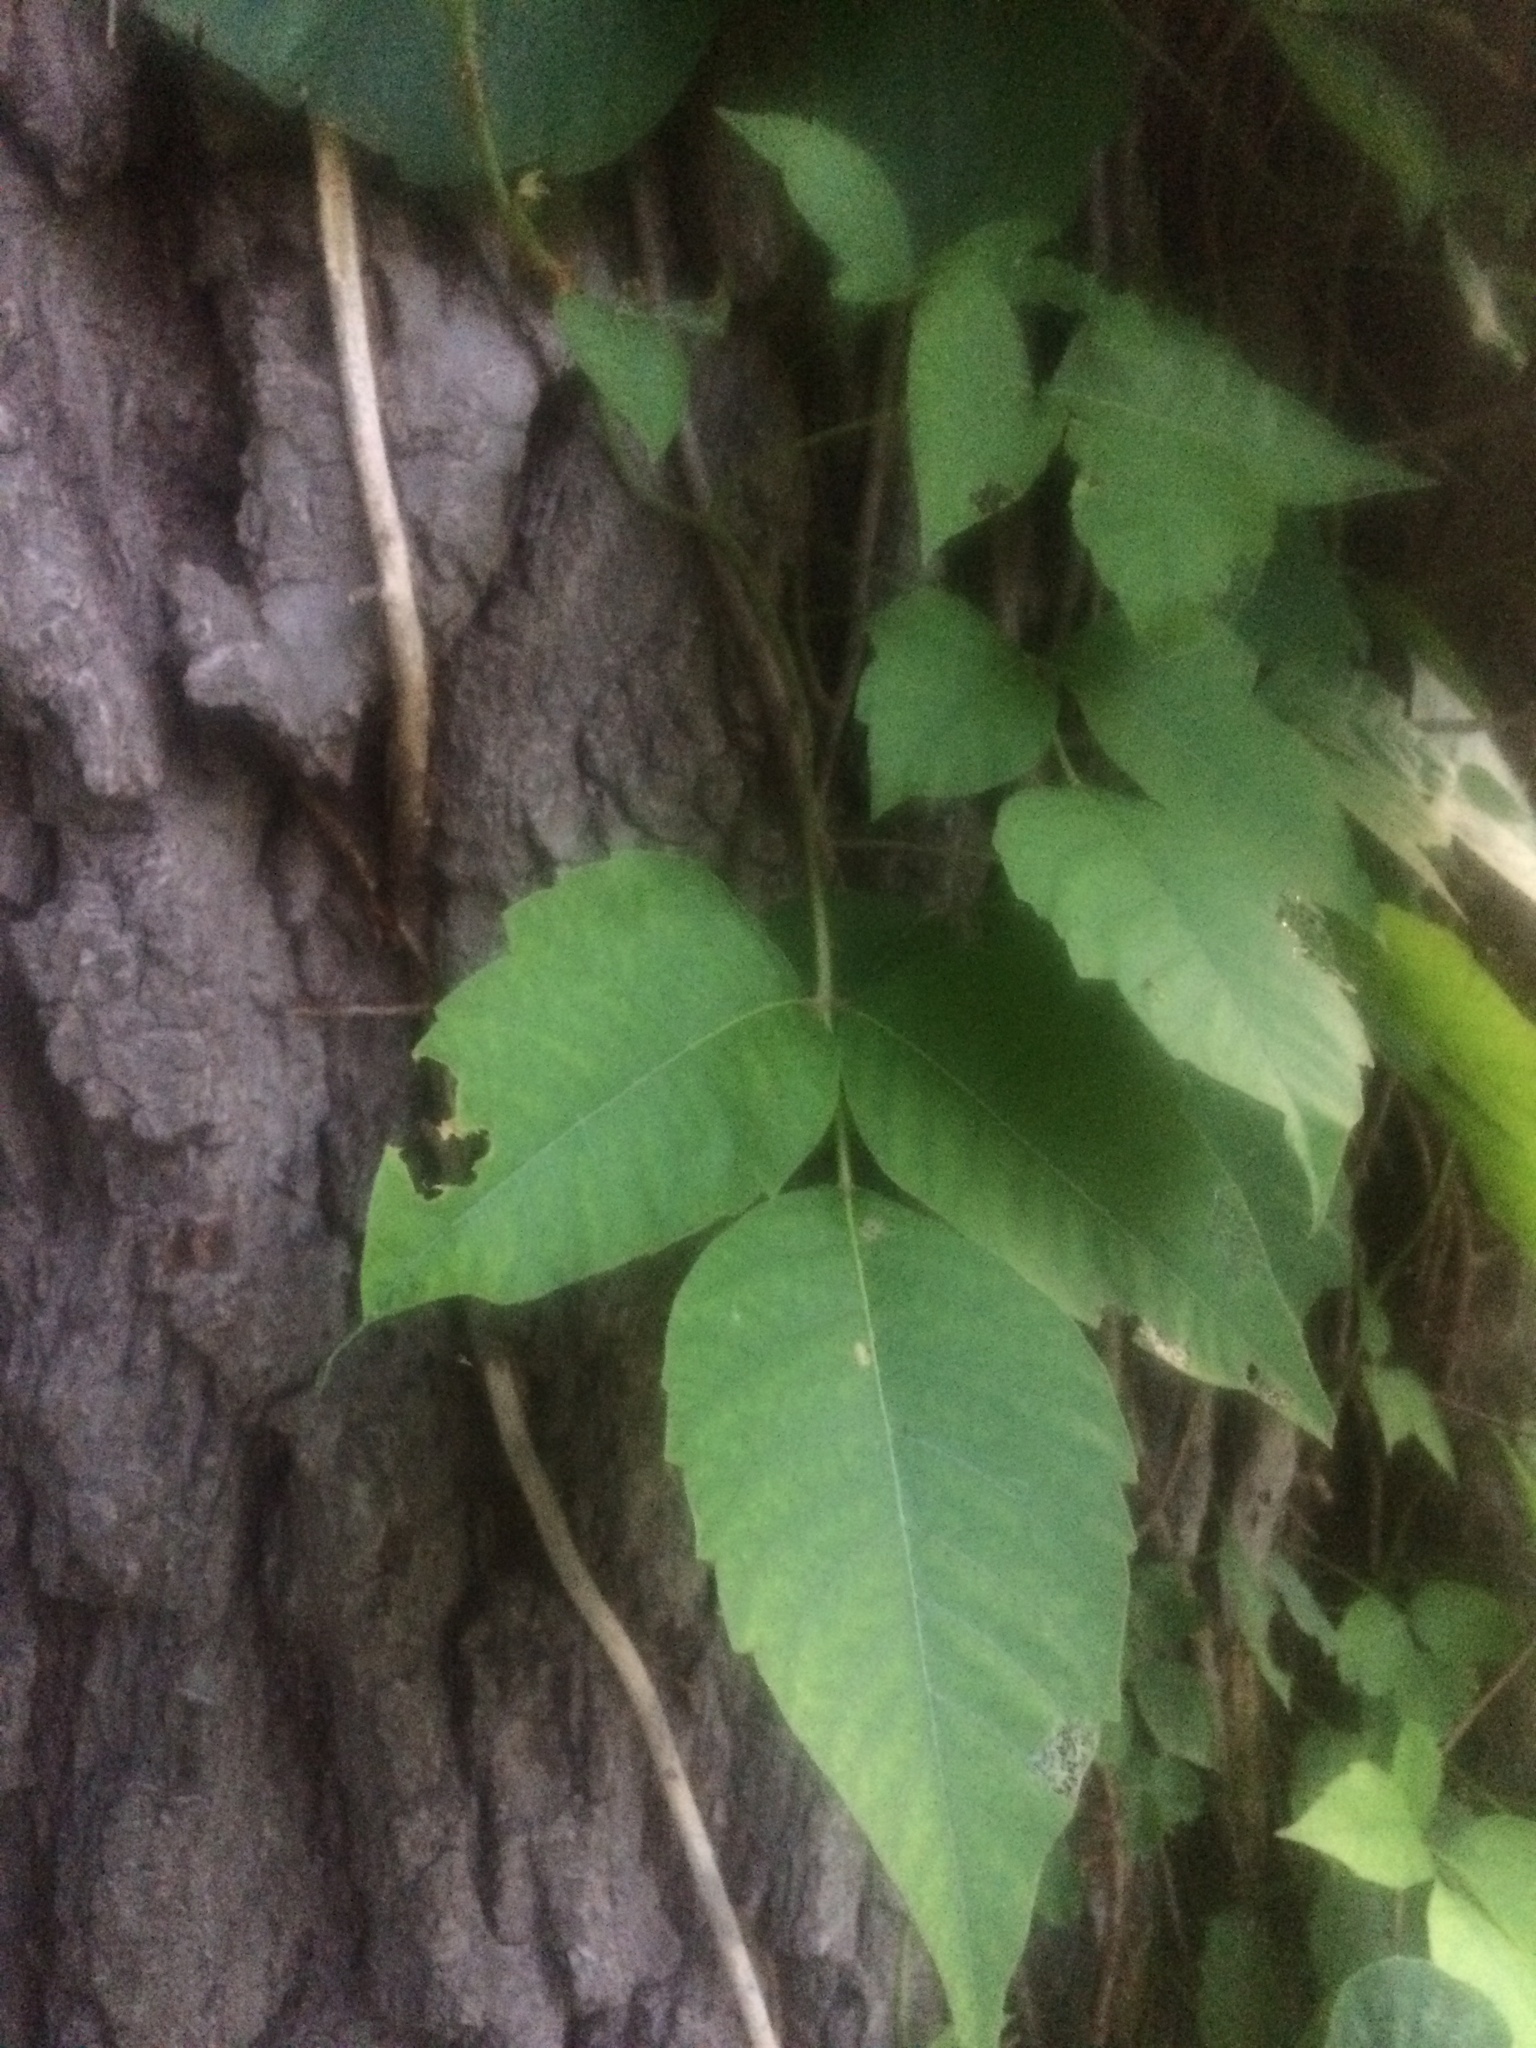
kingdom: Plantae
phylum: Tracheophyta
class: Magnoliopsida
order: Sapindales
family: Anacardiaceae
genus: Toxicodendron
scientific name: Toxicodendron radicans
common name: Poison ivy
